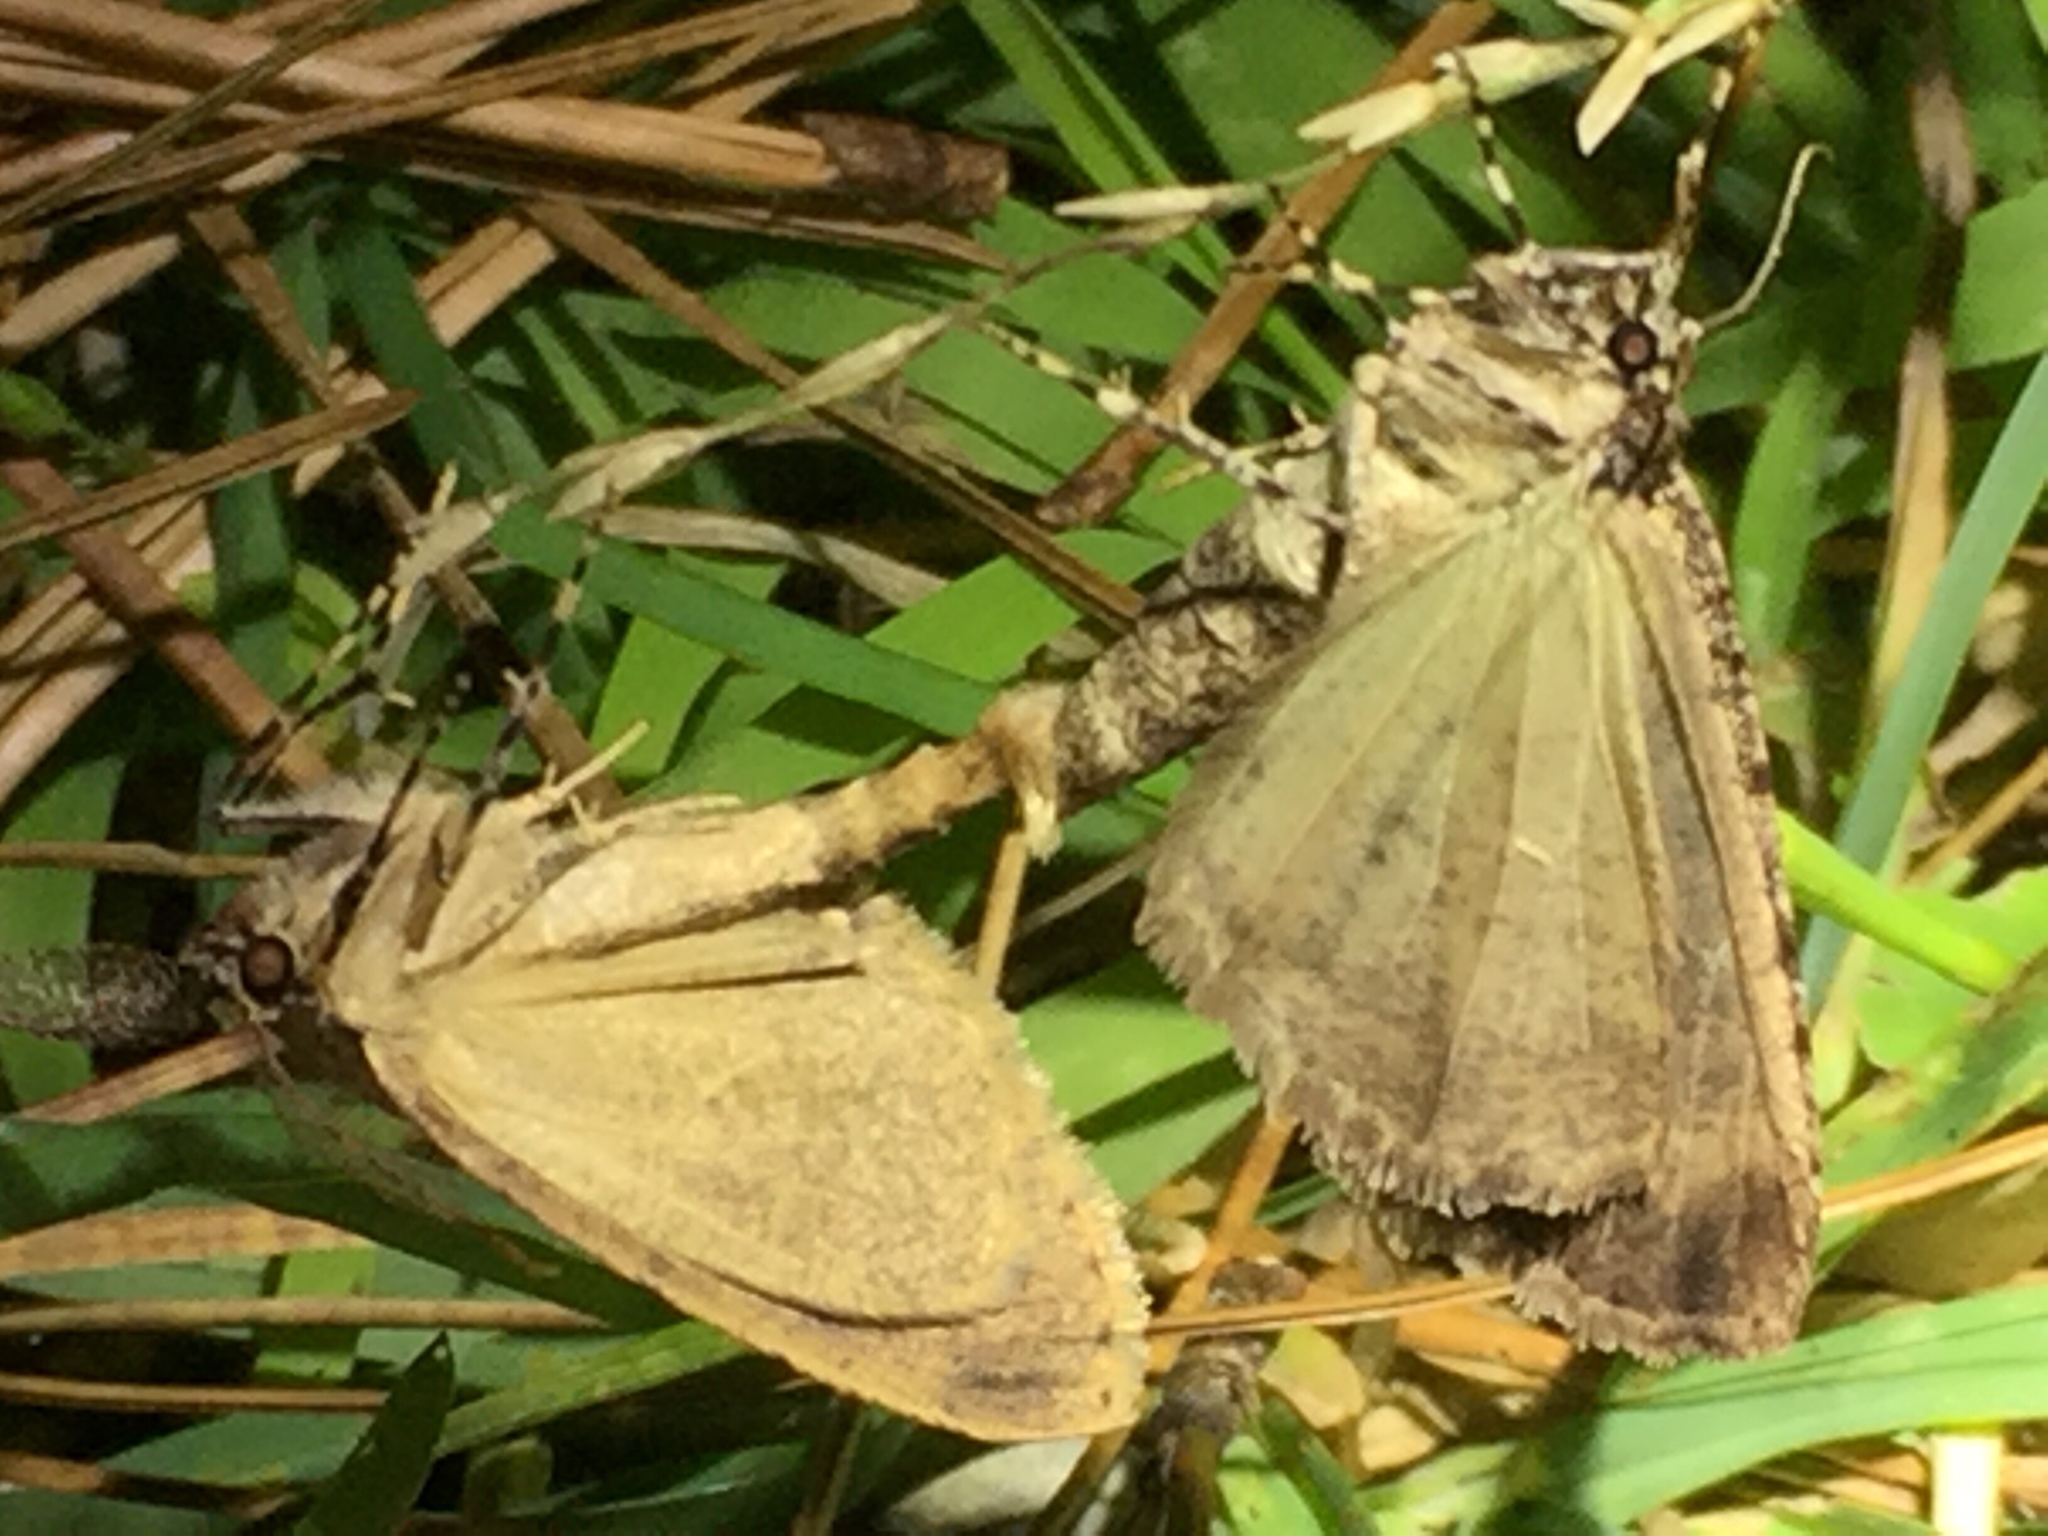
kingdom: Animalia
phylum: Arthropoda
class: Insecta
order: Lepidoptera
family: Geometridae
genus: Pseudocoremia
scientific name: Pseudocoremia suavis
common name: Common forest looper
